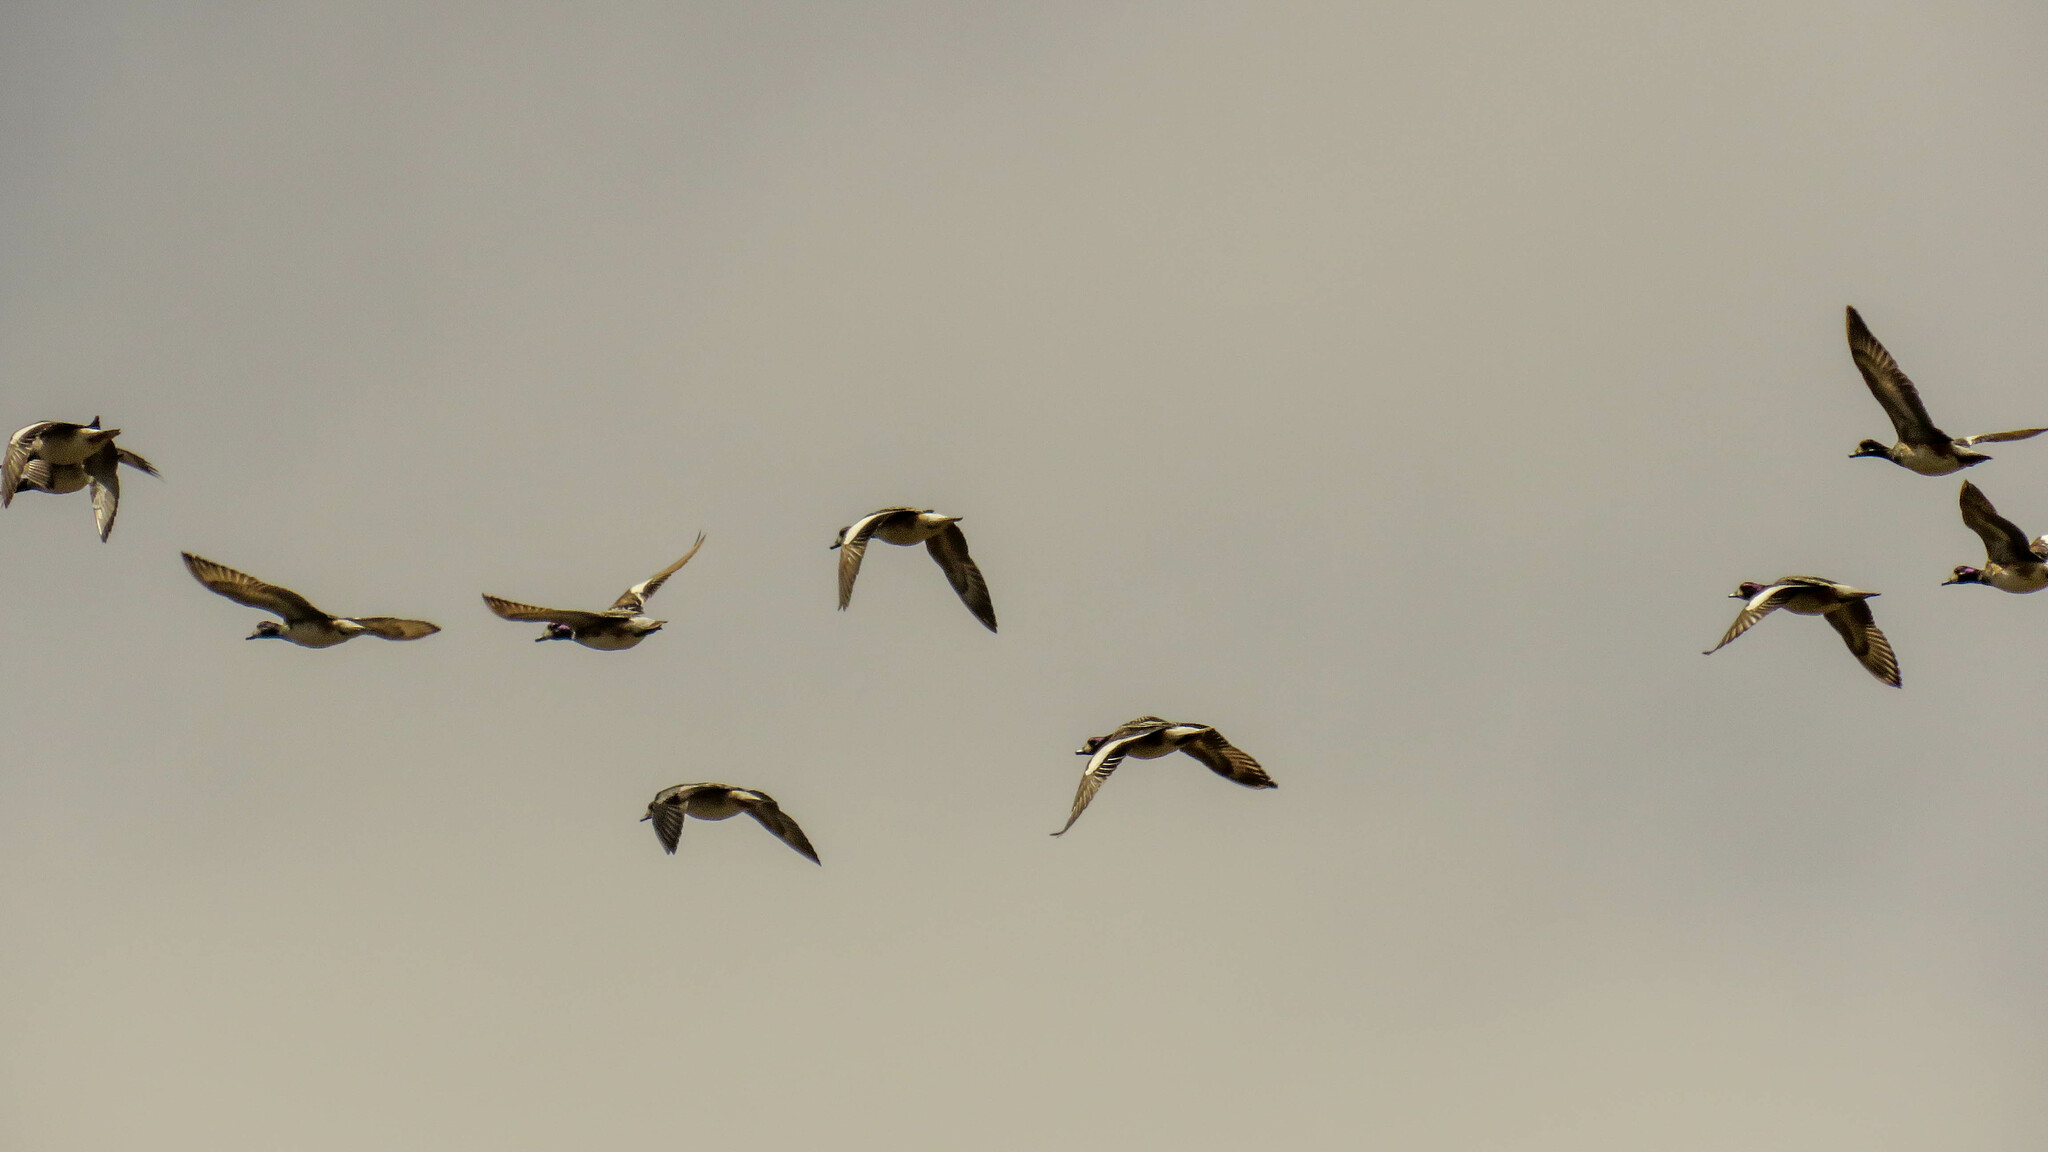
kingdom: Animalia
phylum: Chordata
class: Aves
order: Anseriformes
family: Anatidae
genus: Mareca
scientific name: Mareca sibilatrix
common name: Chiloe wigeon
